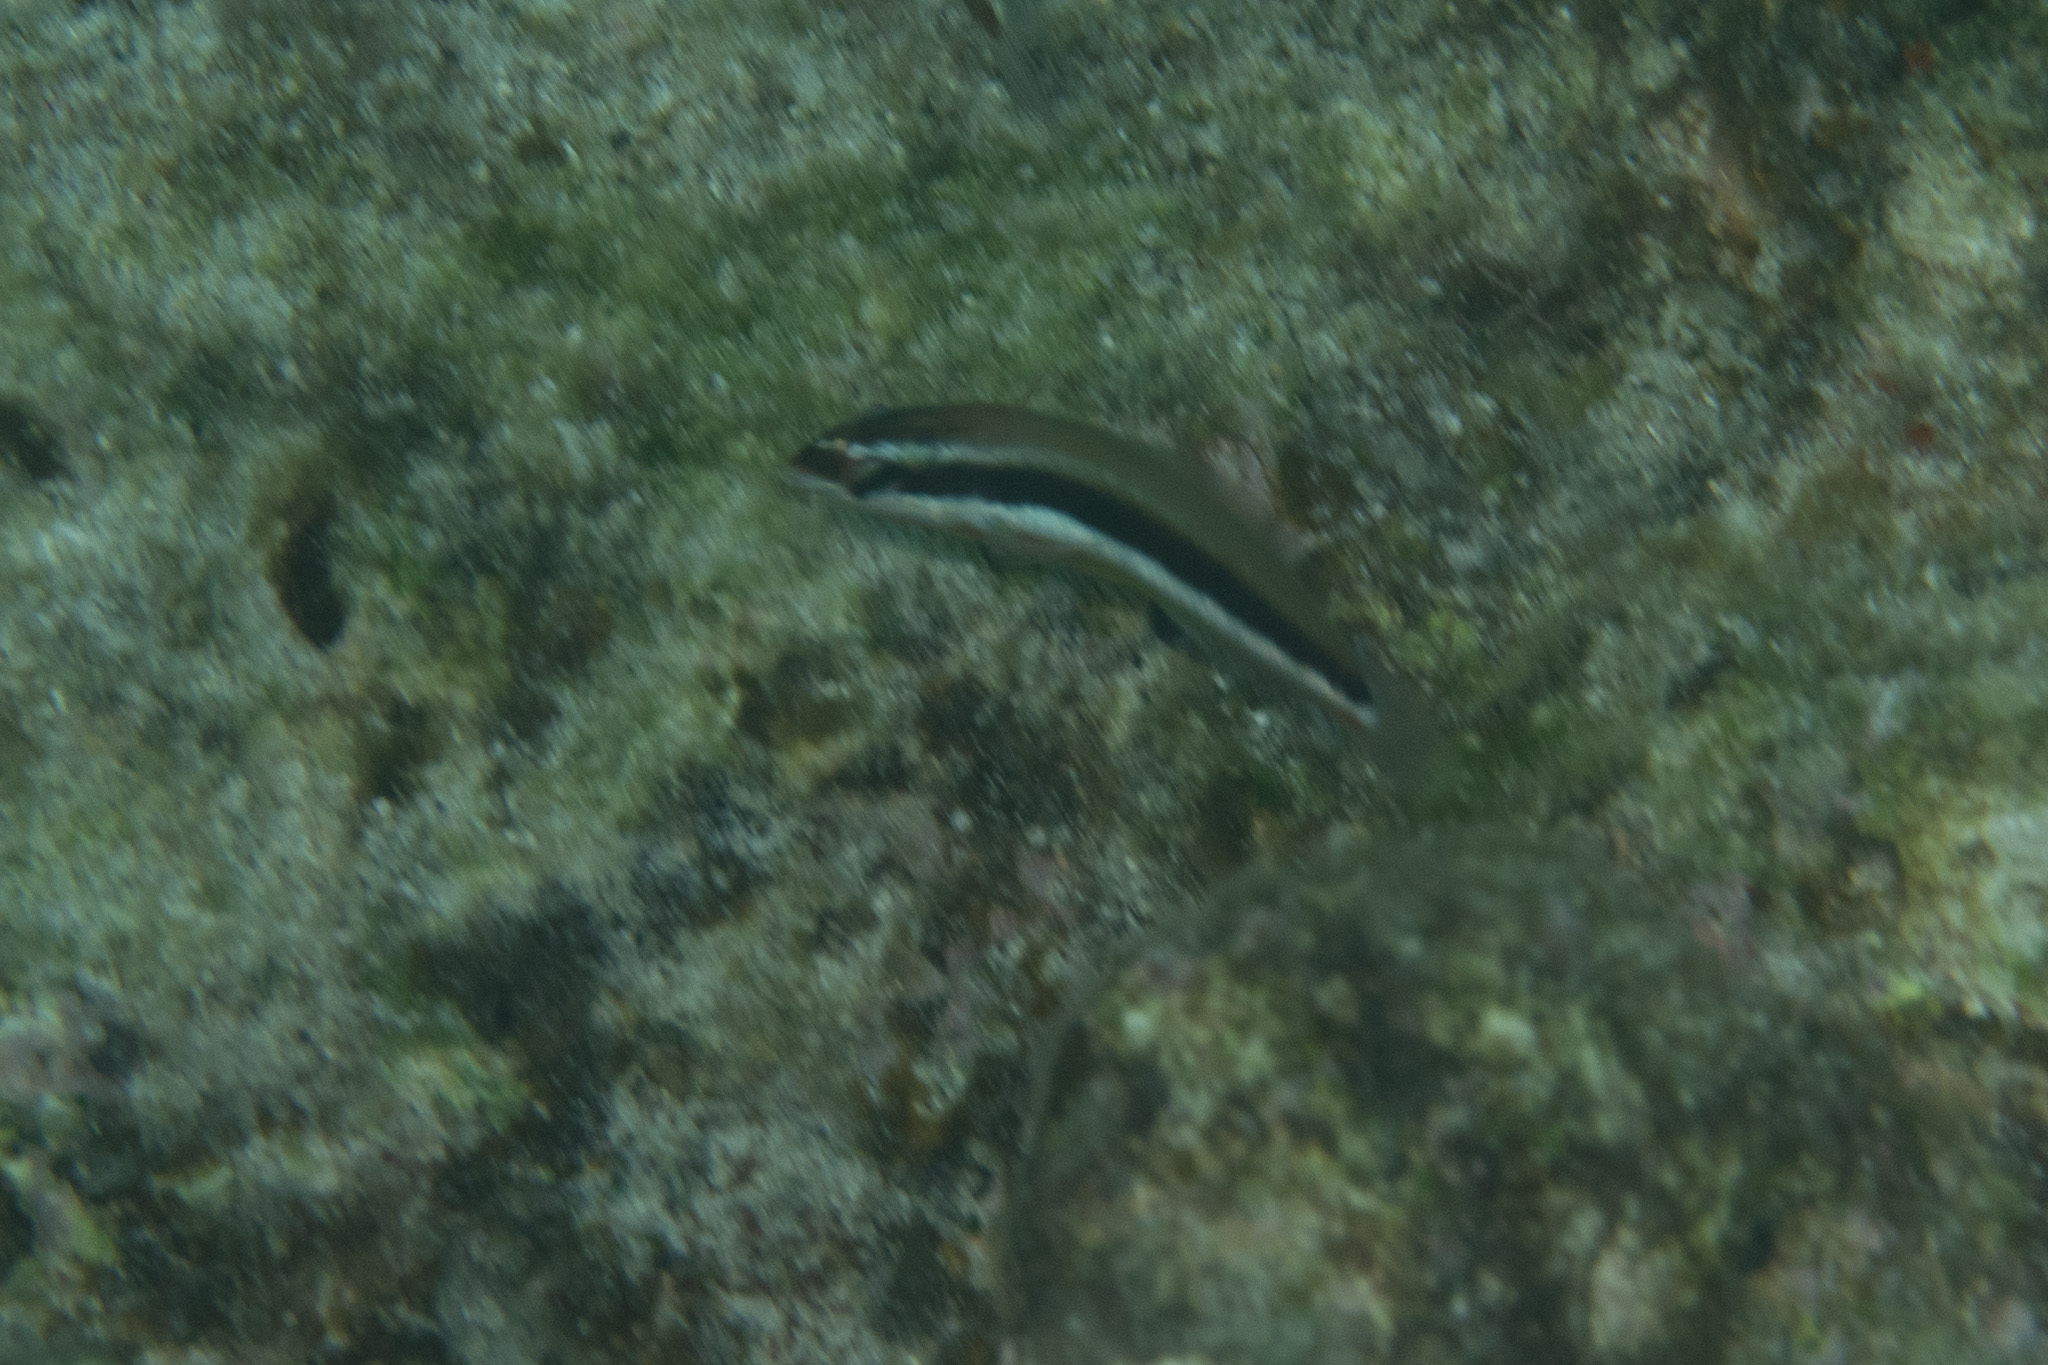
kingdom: Animalia
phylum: Chordata
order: Perciformes
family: Labridae
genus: Thalassoma
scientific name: Thalassoma duperrey
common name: Saddle wrasse
